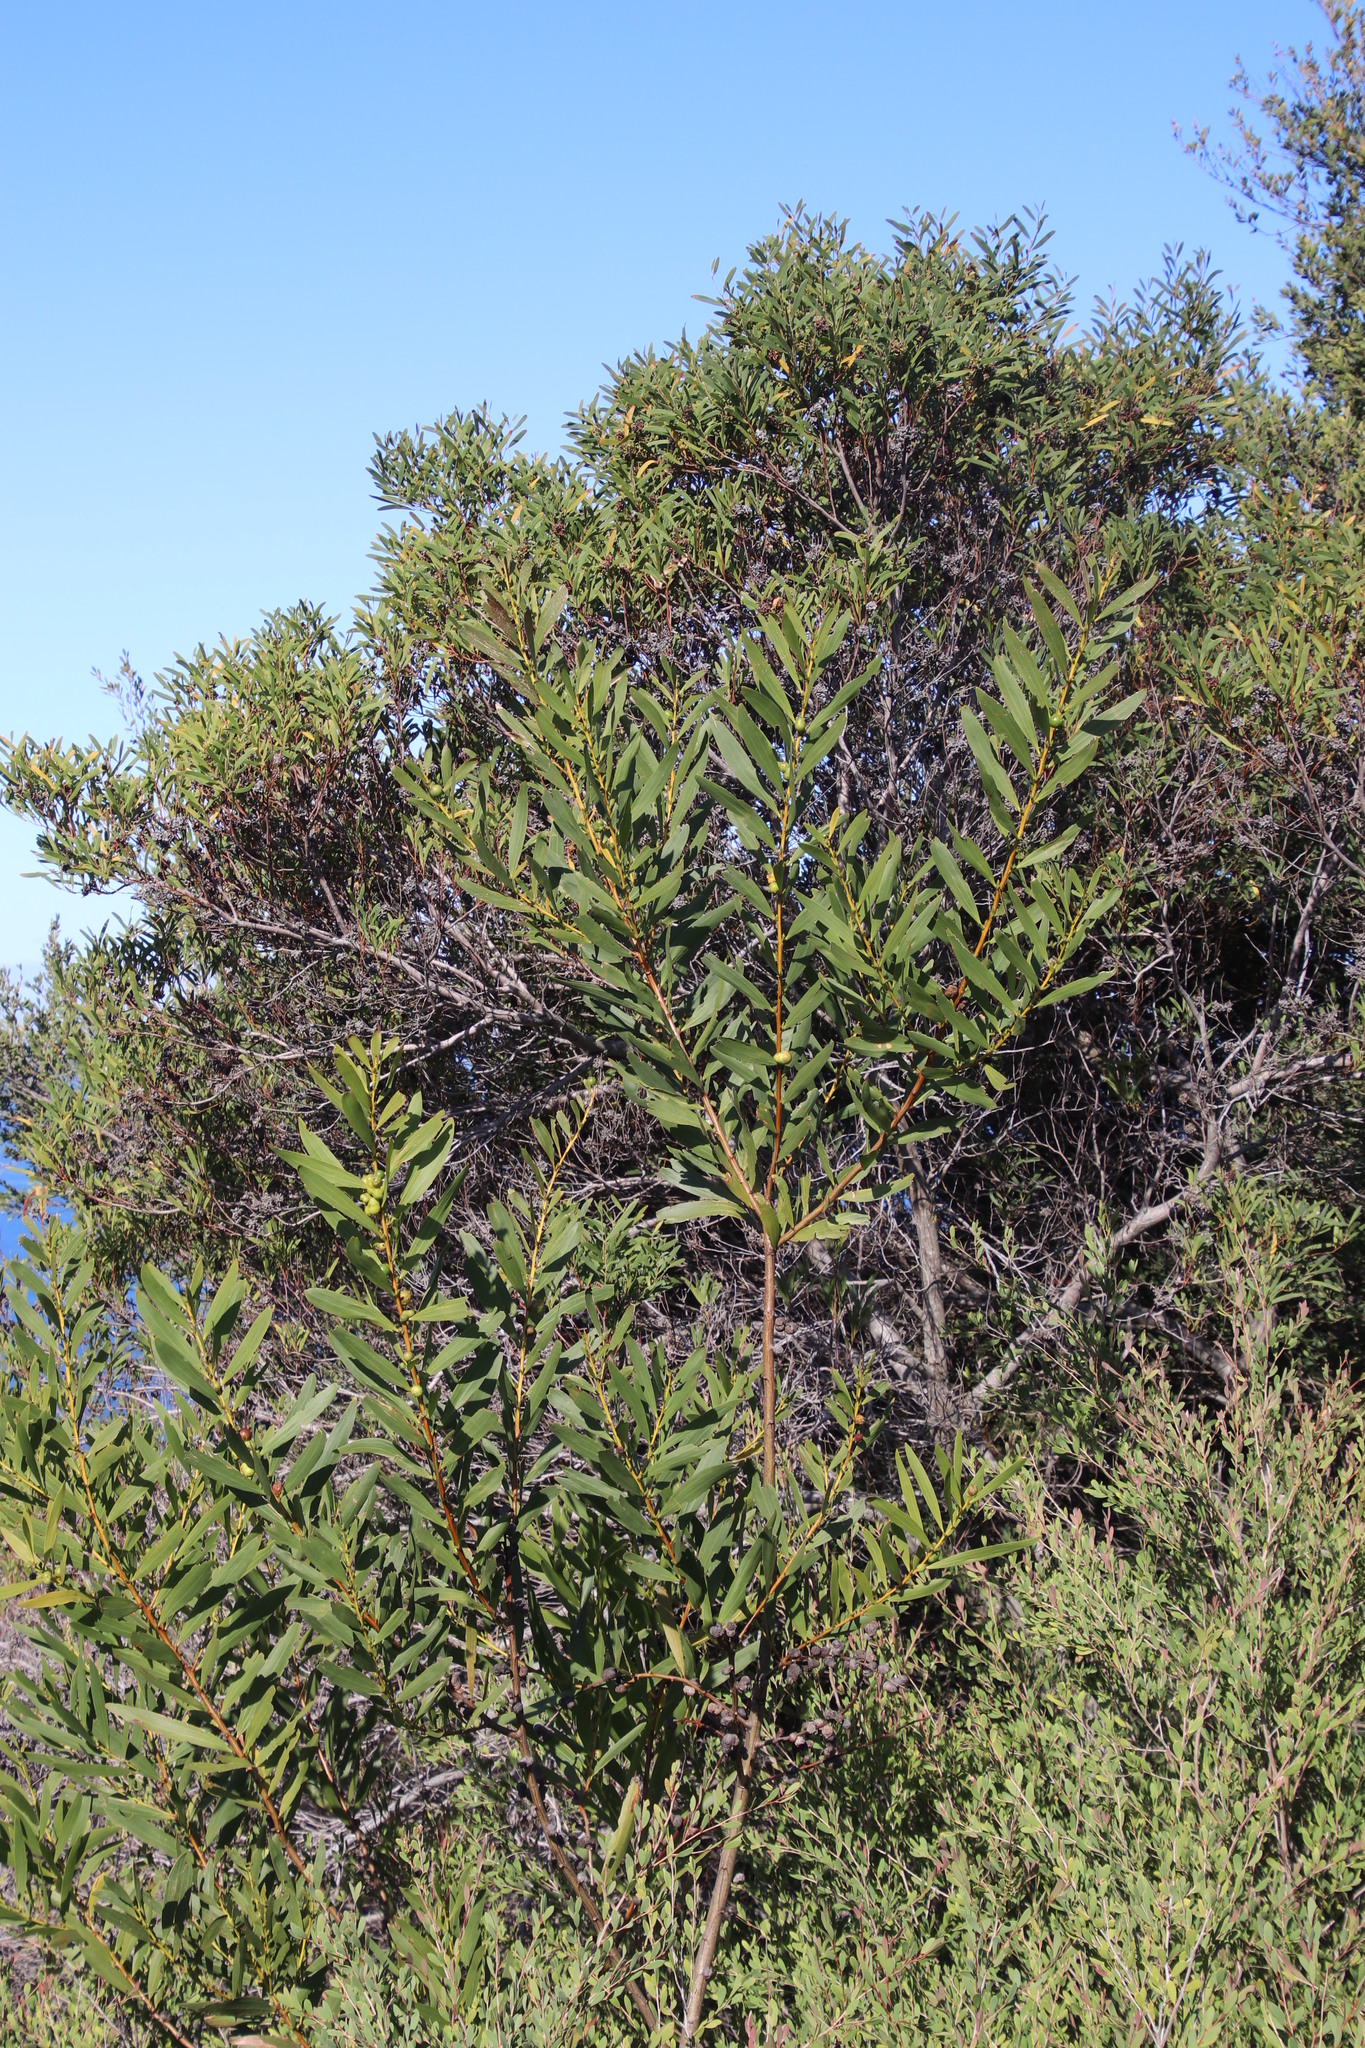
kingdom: Plantae
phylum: Tracheophyta
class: Magnoliopsida
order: Fabales
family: Fabaceae
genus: Acacia
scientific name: Acacia longifolia
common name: Sydney golden wattle
